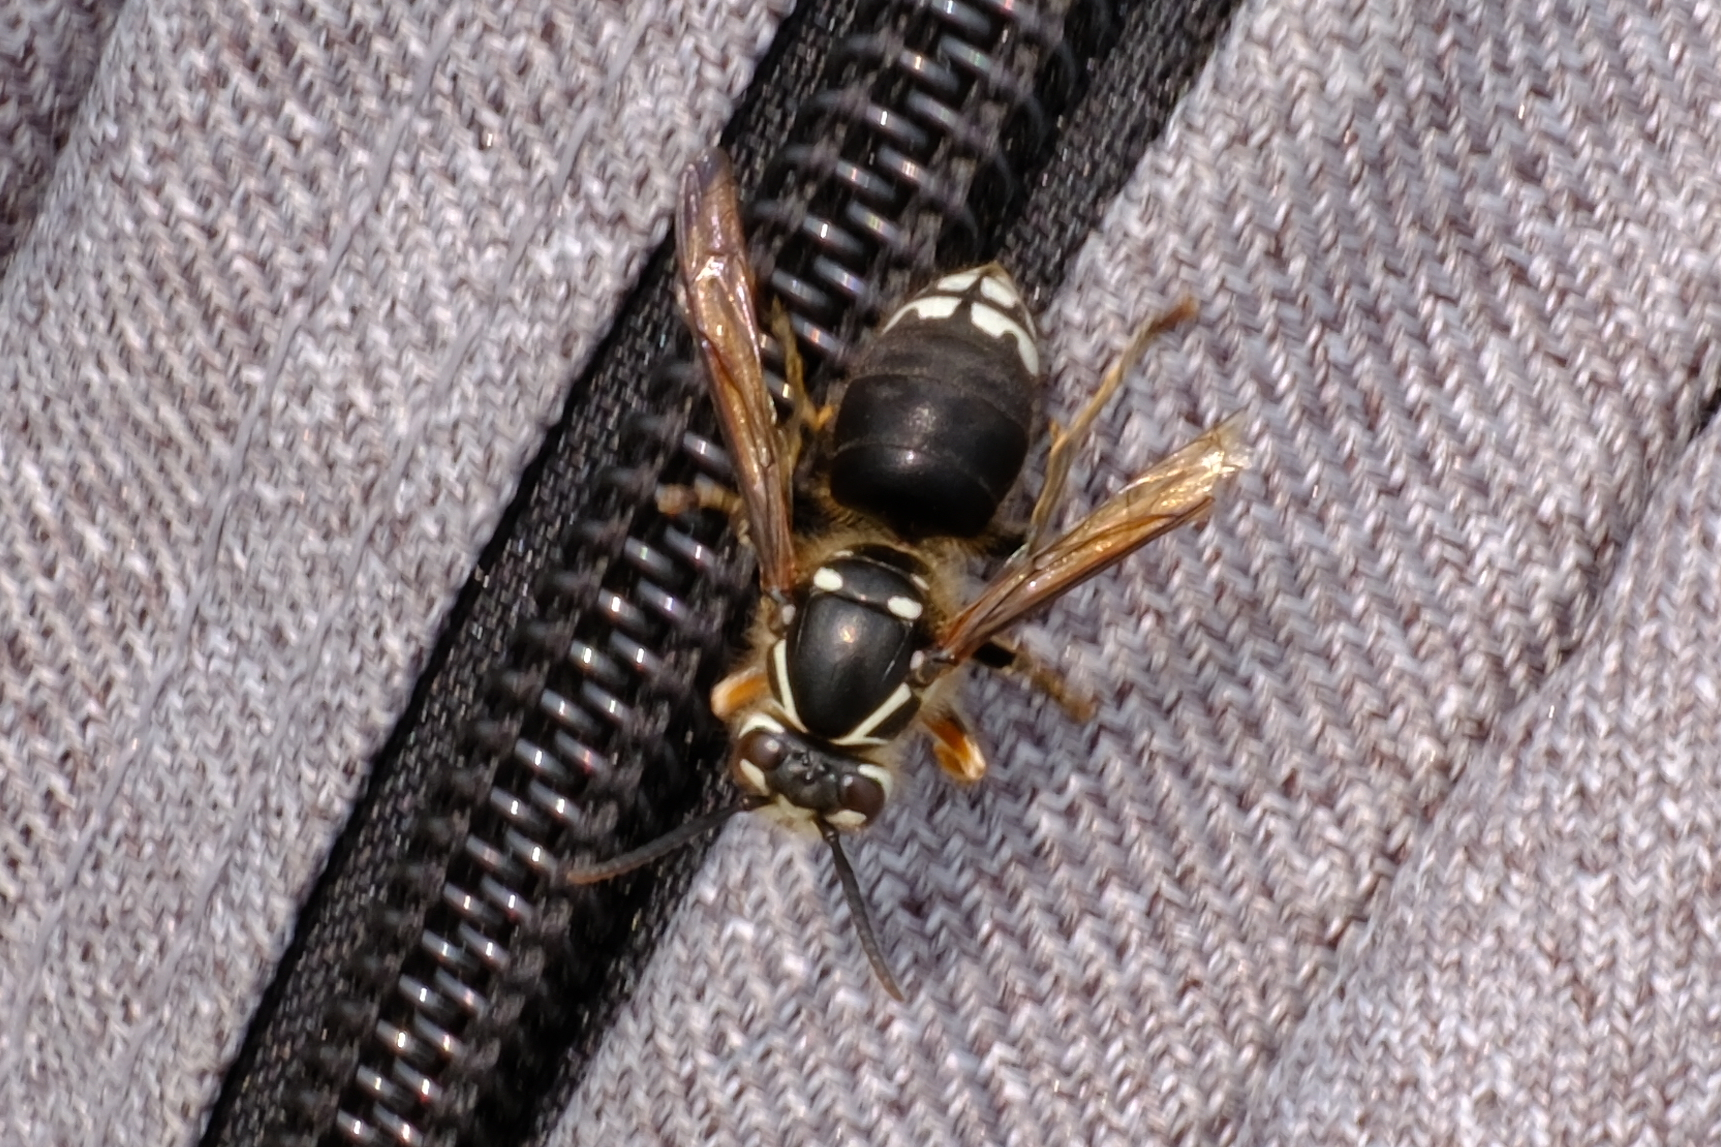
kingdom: Animalia
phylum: Arthropoda
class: Insecta
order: Hymenoptera
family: Vespidae
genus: Dolichovespula
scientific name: Dolichovespula maculata
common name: Bald-faced hornet
